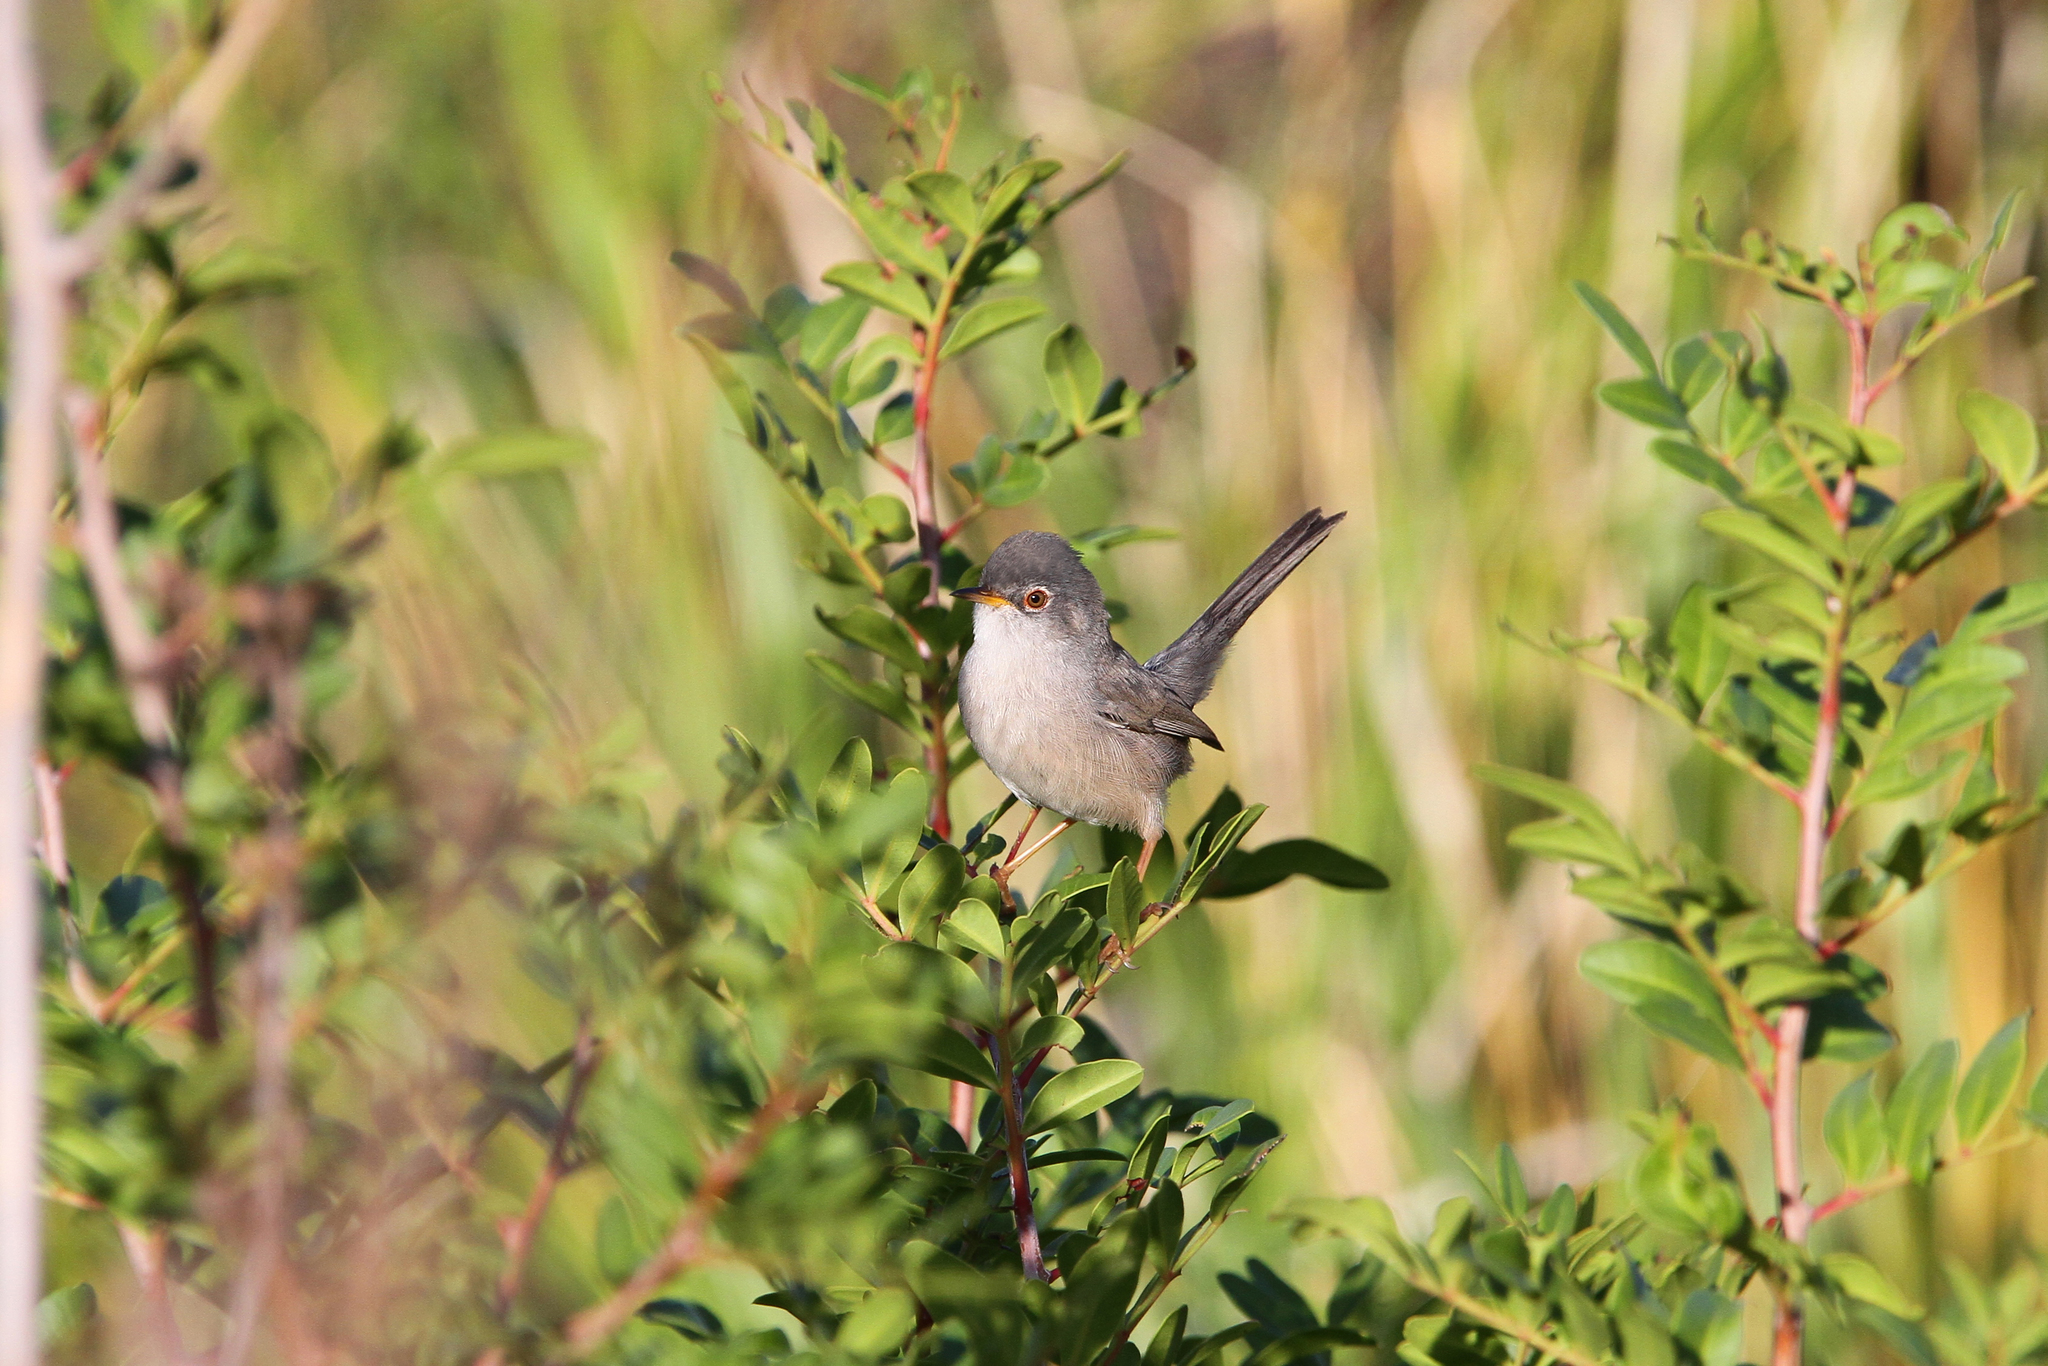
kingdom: Animalia
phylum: Chordata
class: Aves
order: Passeriformes
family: Sylviidae
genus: Curruca
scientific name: Curruca balearica
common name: Balearic warbler
